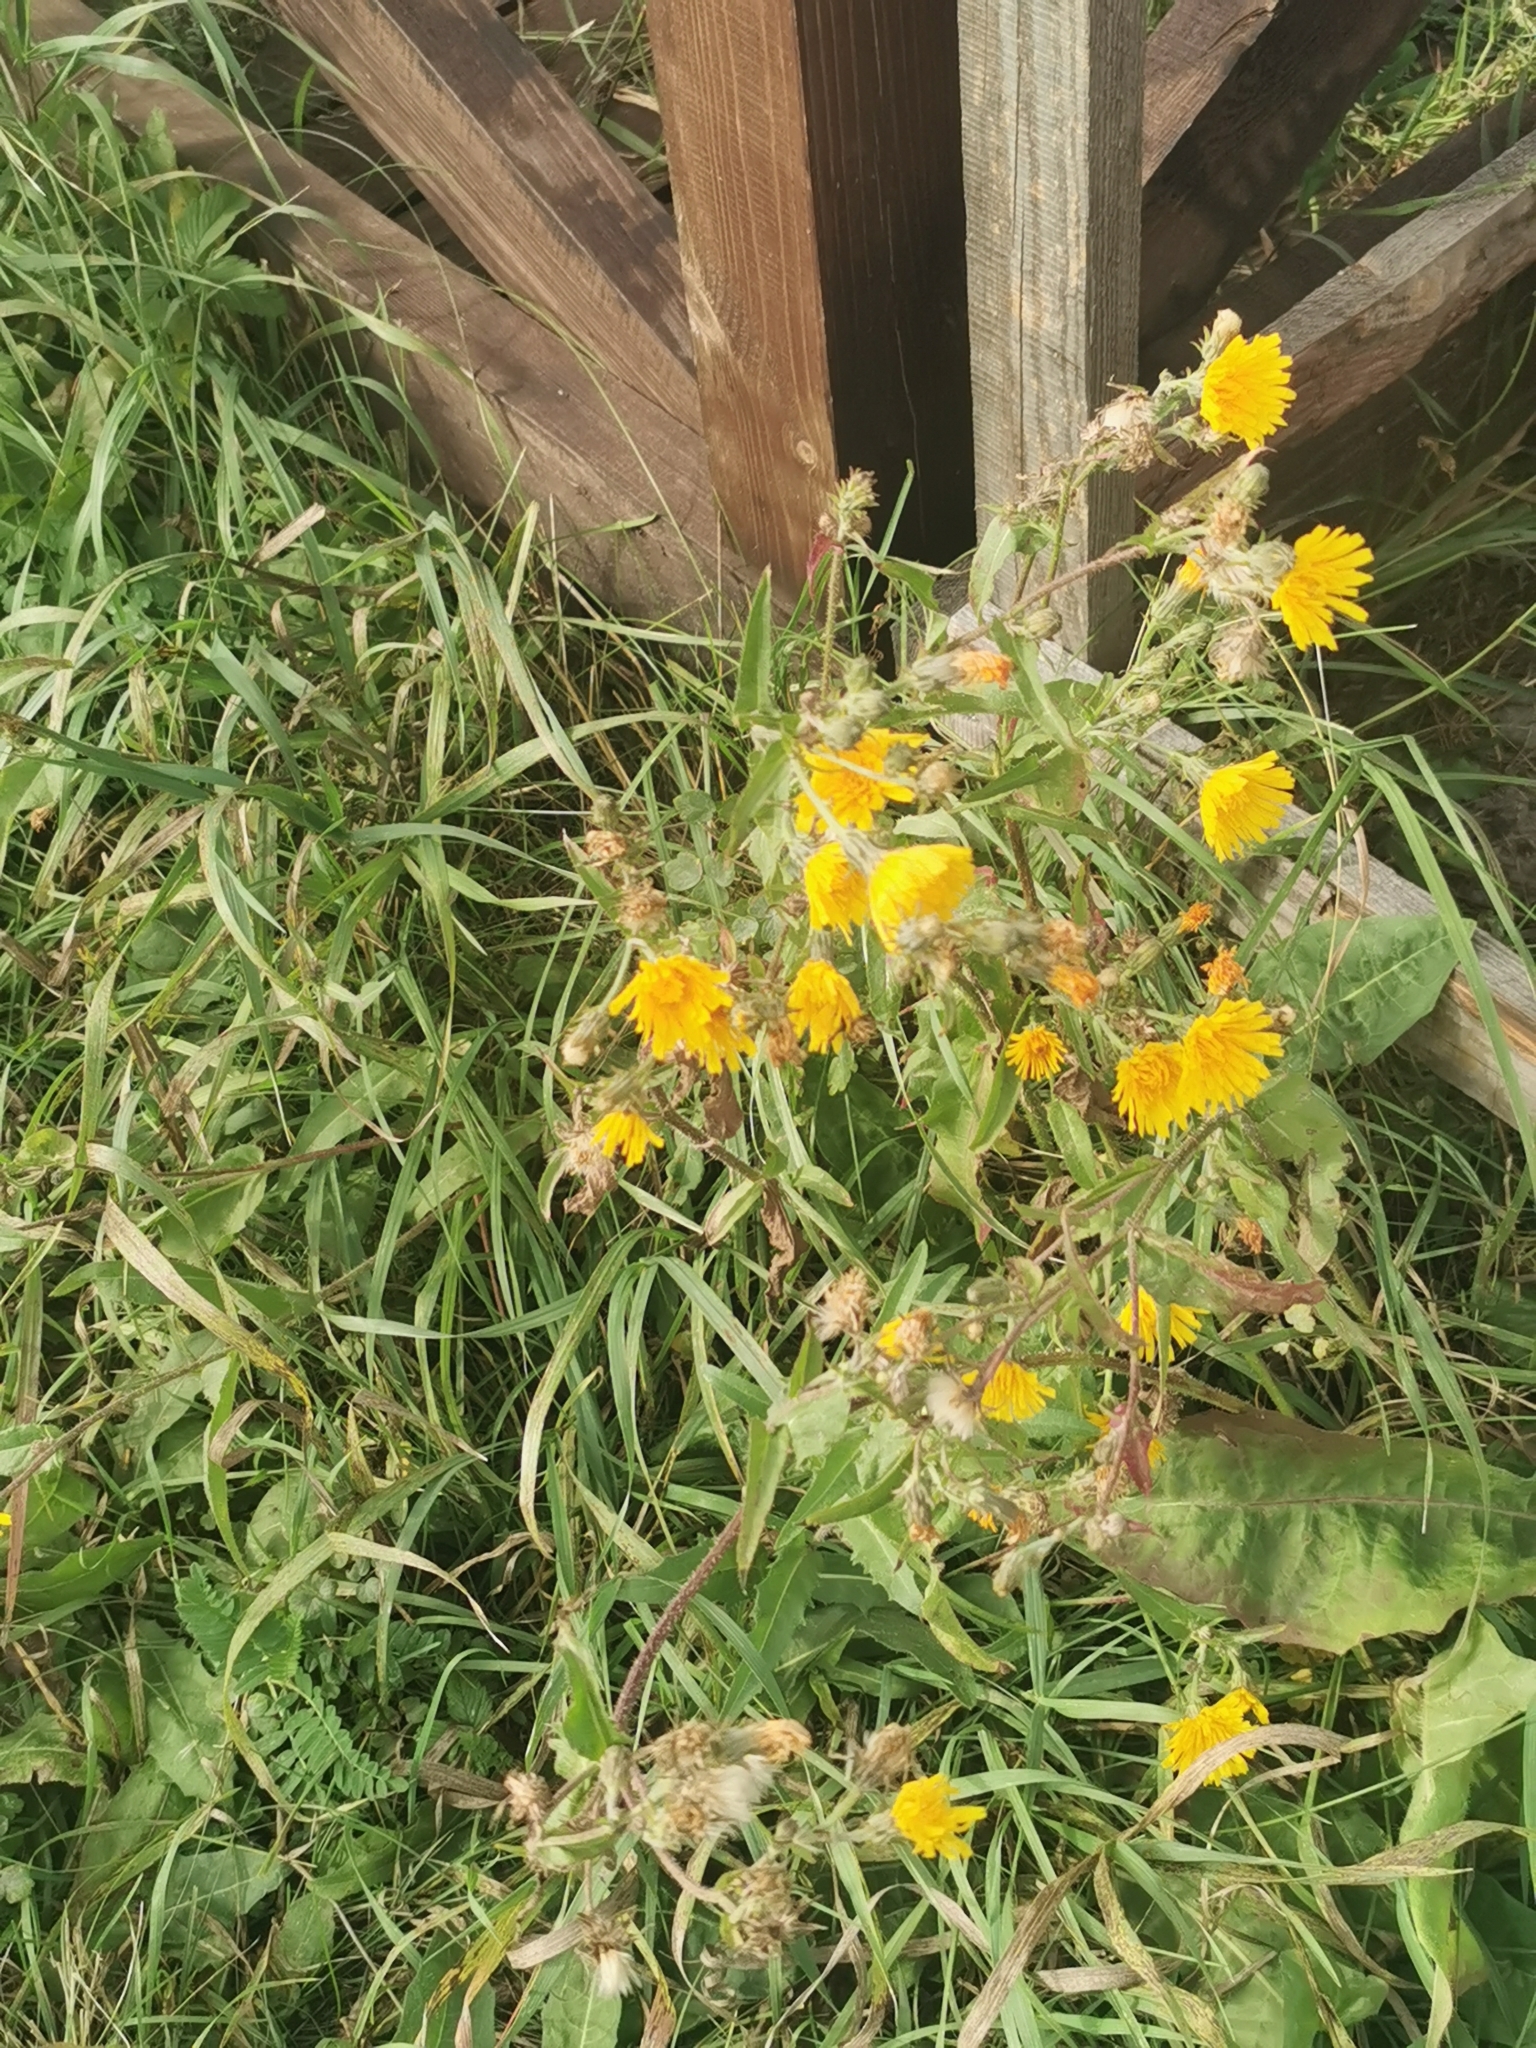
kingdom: Plantae
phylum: Tracheophyta
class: Magnoliopsida
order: Asterales
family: Asteraceae
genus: Picris
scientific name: Picris hieracioides
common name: Hawkweed oxtongue
